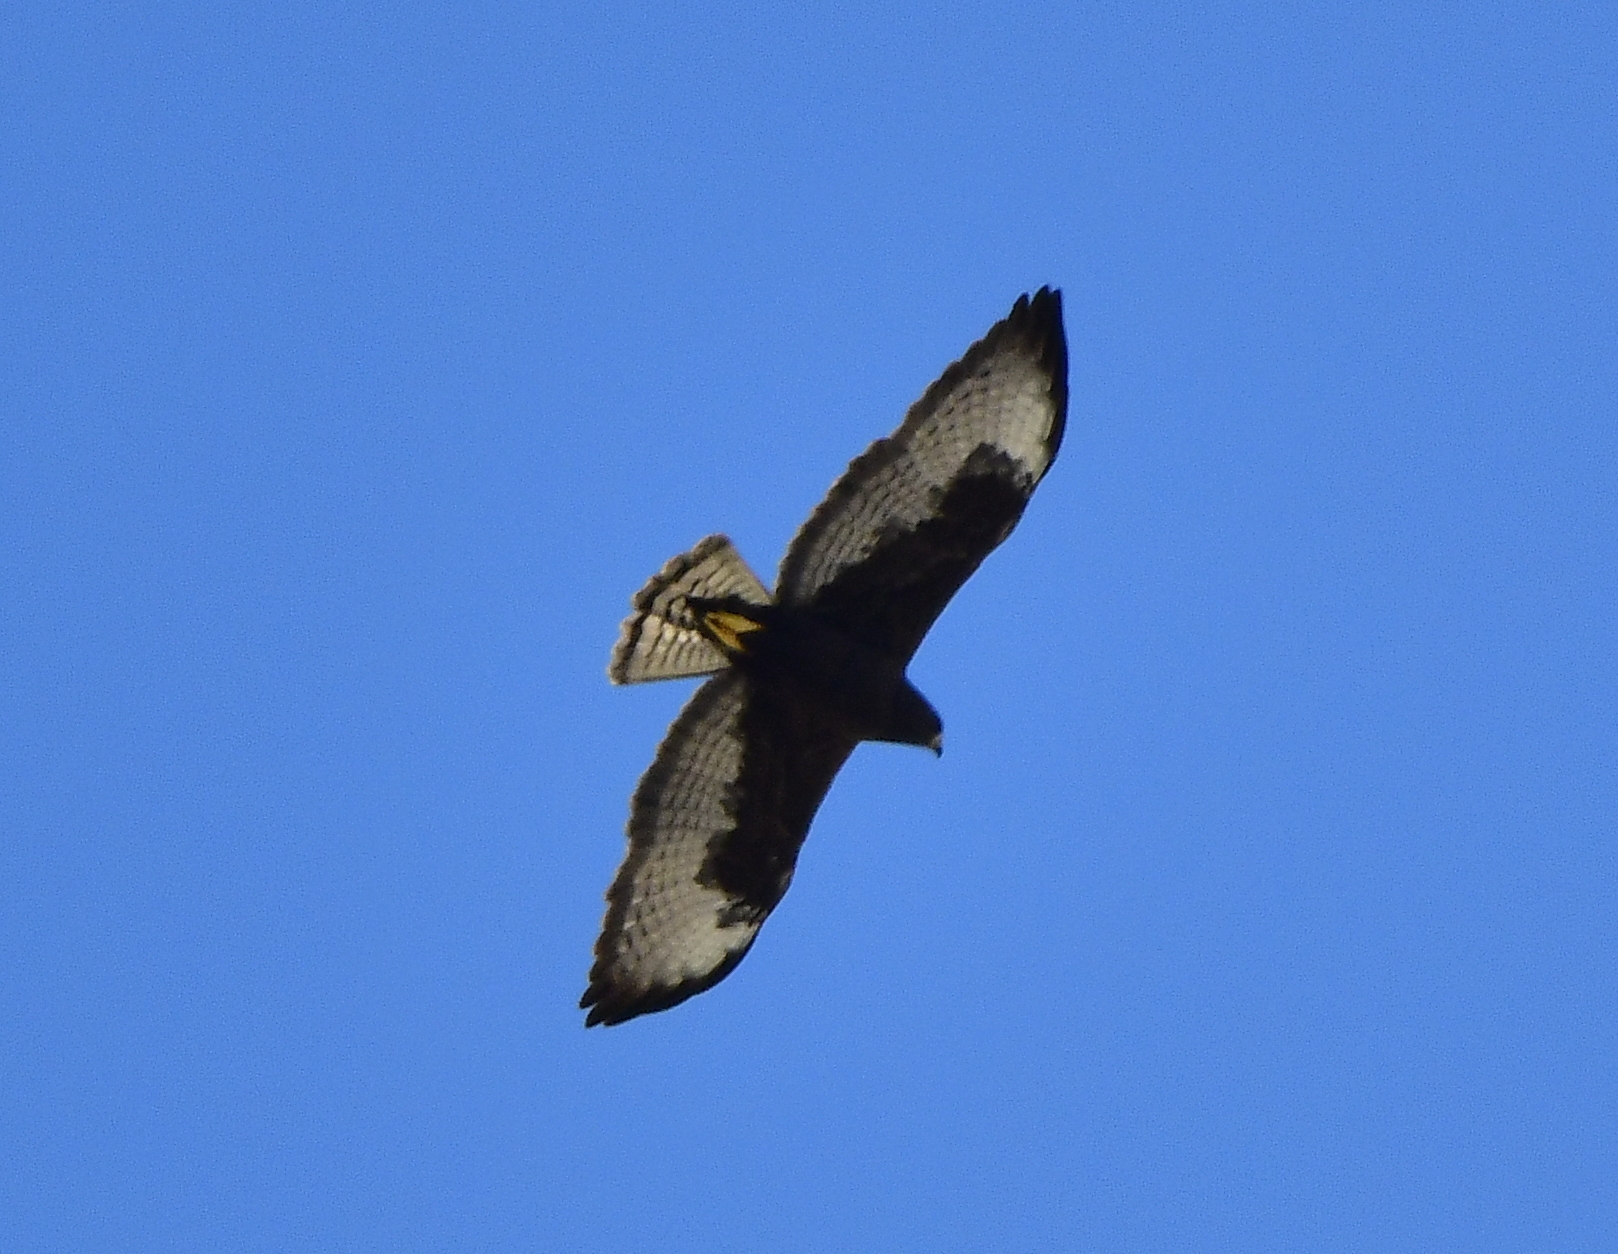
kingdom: Animalia
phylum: Chordata
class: Aves
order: Accipitriformes
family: Accipitridae
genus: Buteo
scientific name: Buteo brachyurus
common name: Short-tailed hawk
